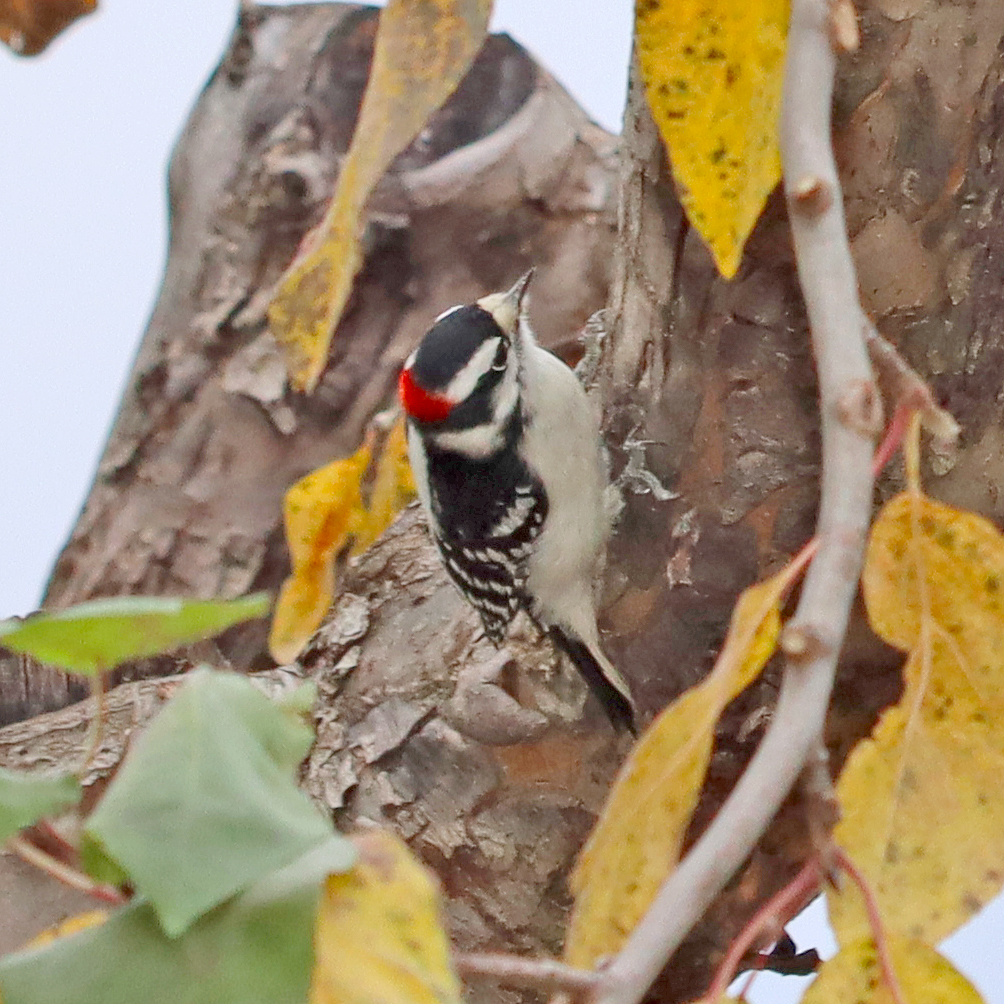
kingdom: Animalia
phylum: Chordata
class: Aves
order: Piciformes
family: Picidae
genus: Dryobates
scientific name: Dryobates pubescens
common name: Downy woodpecker
